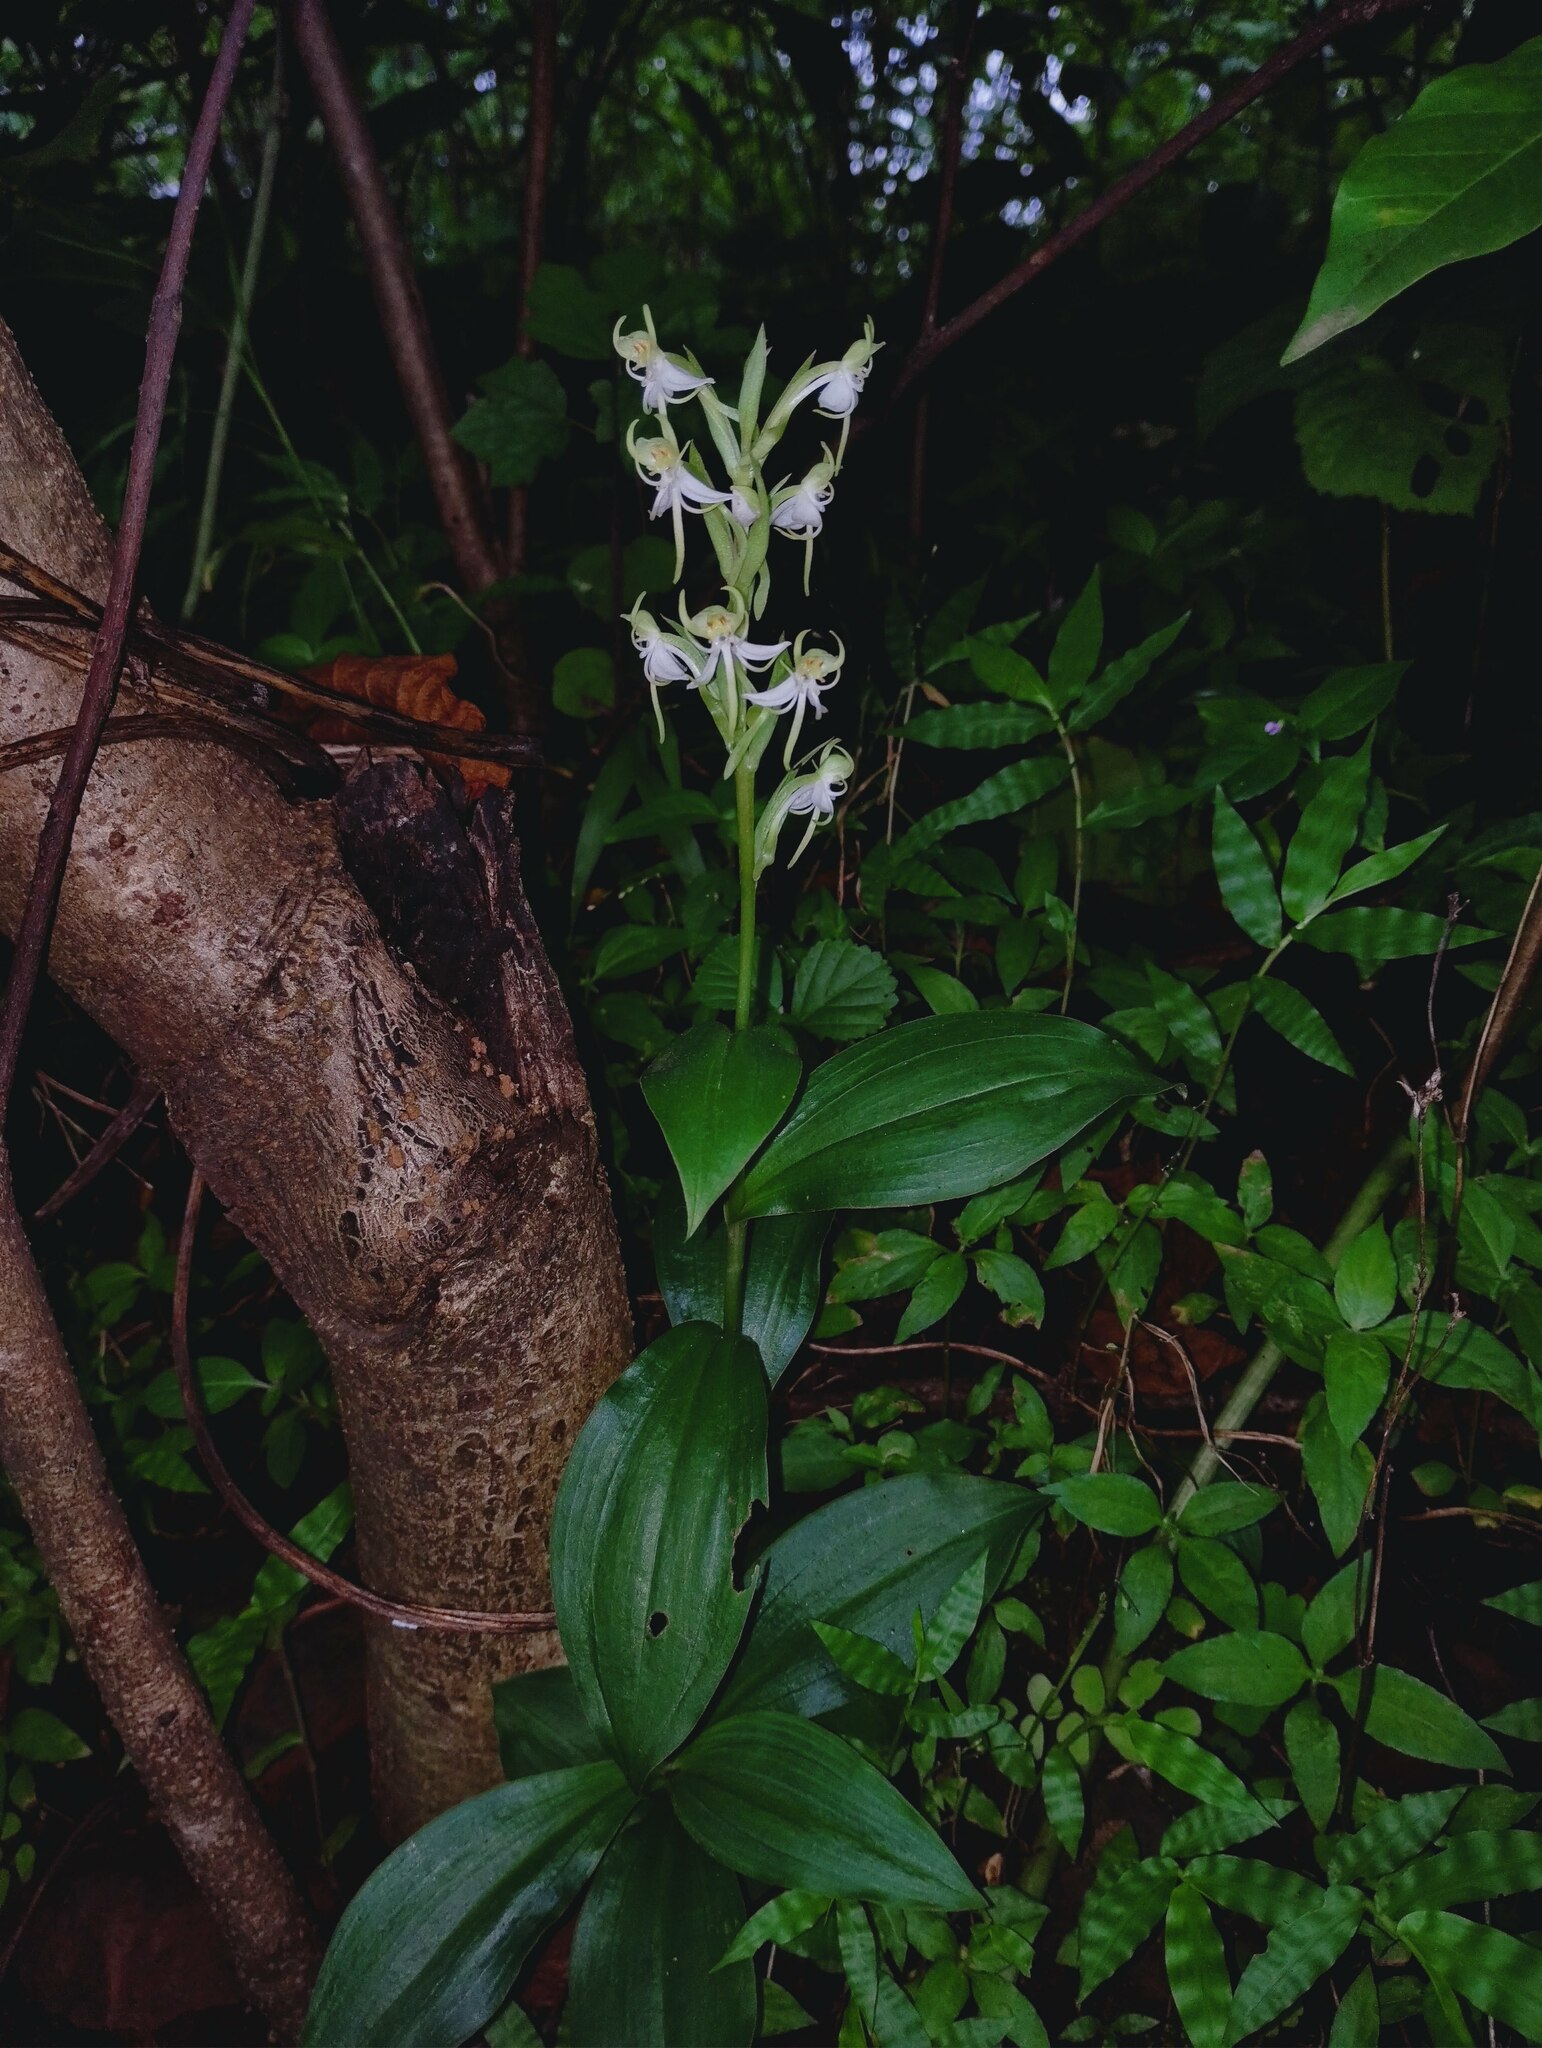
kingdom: Plantae
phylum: Tracheophyta
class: Liliopsida
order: Asparagales
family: Orchidaceae
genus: Habenaria
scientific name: Habenaria gibsonii
